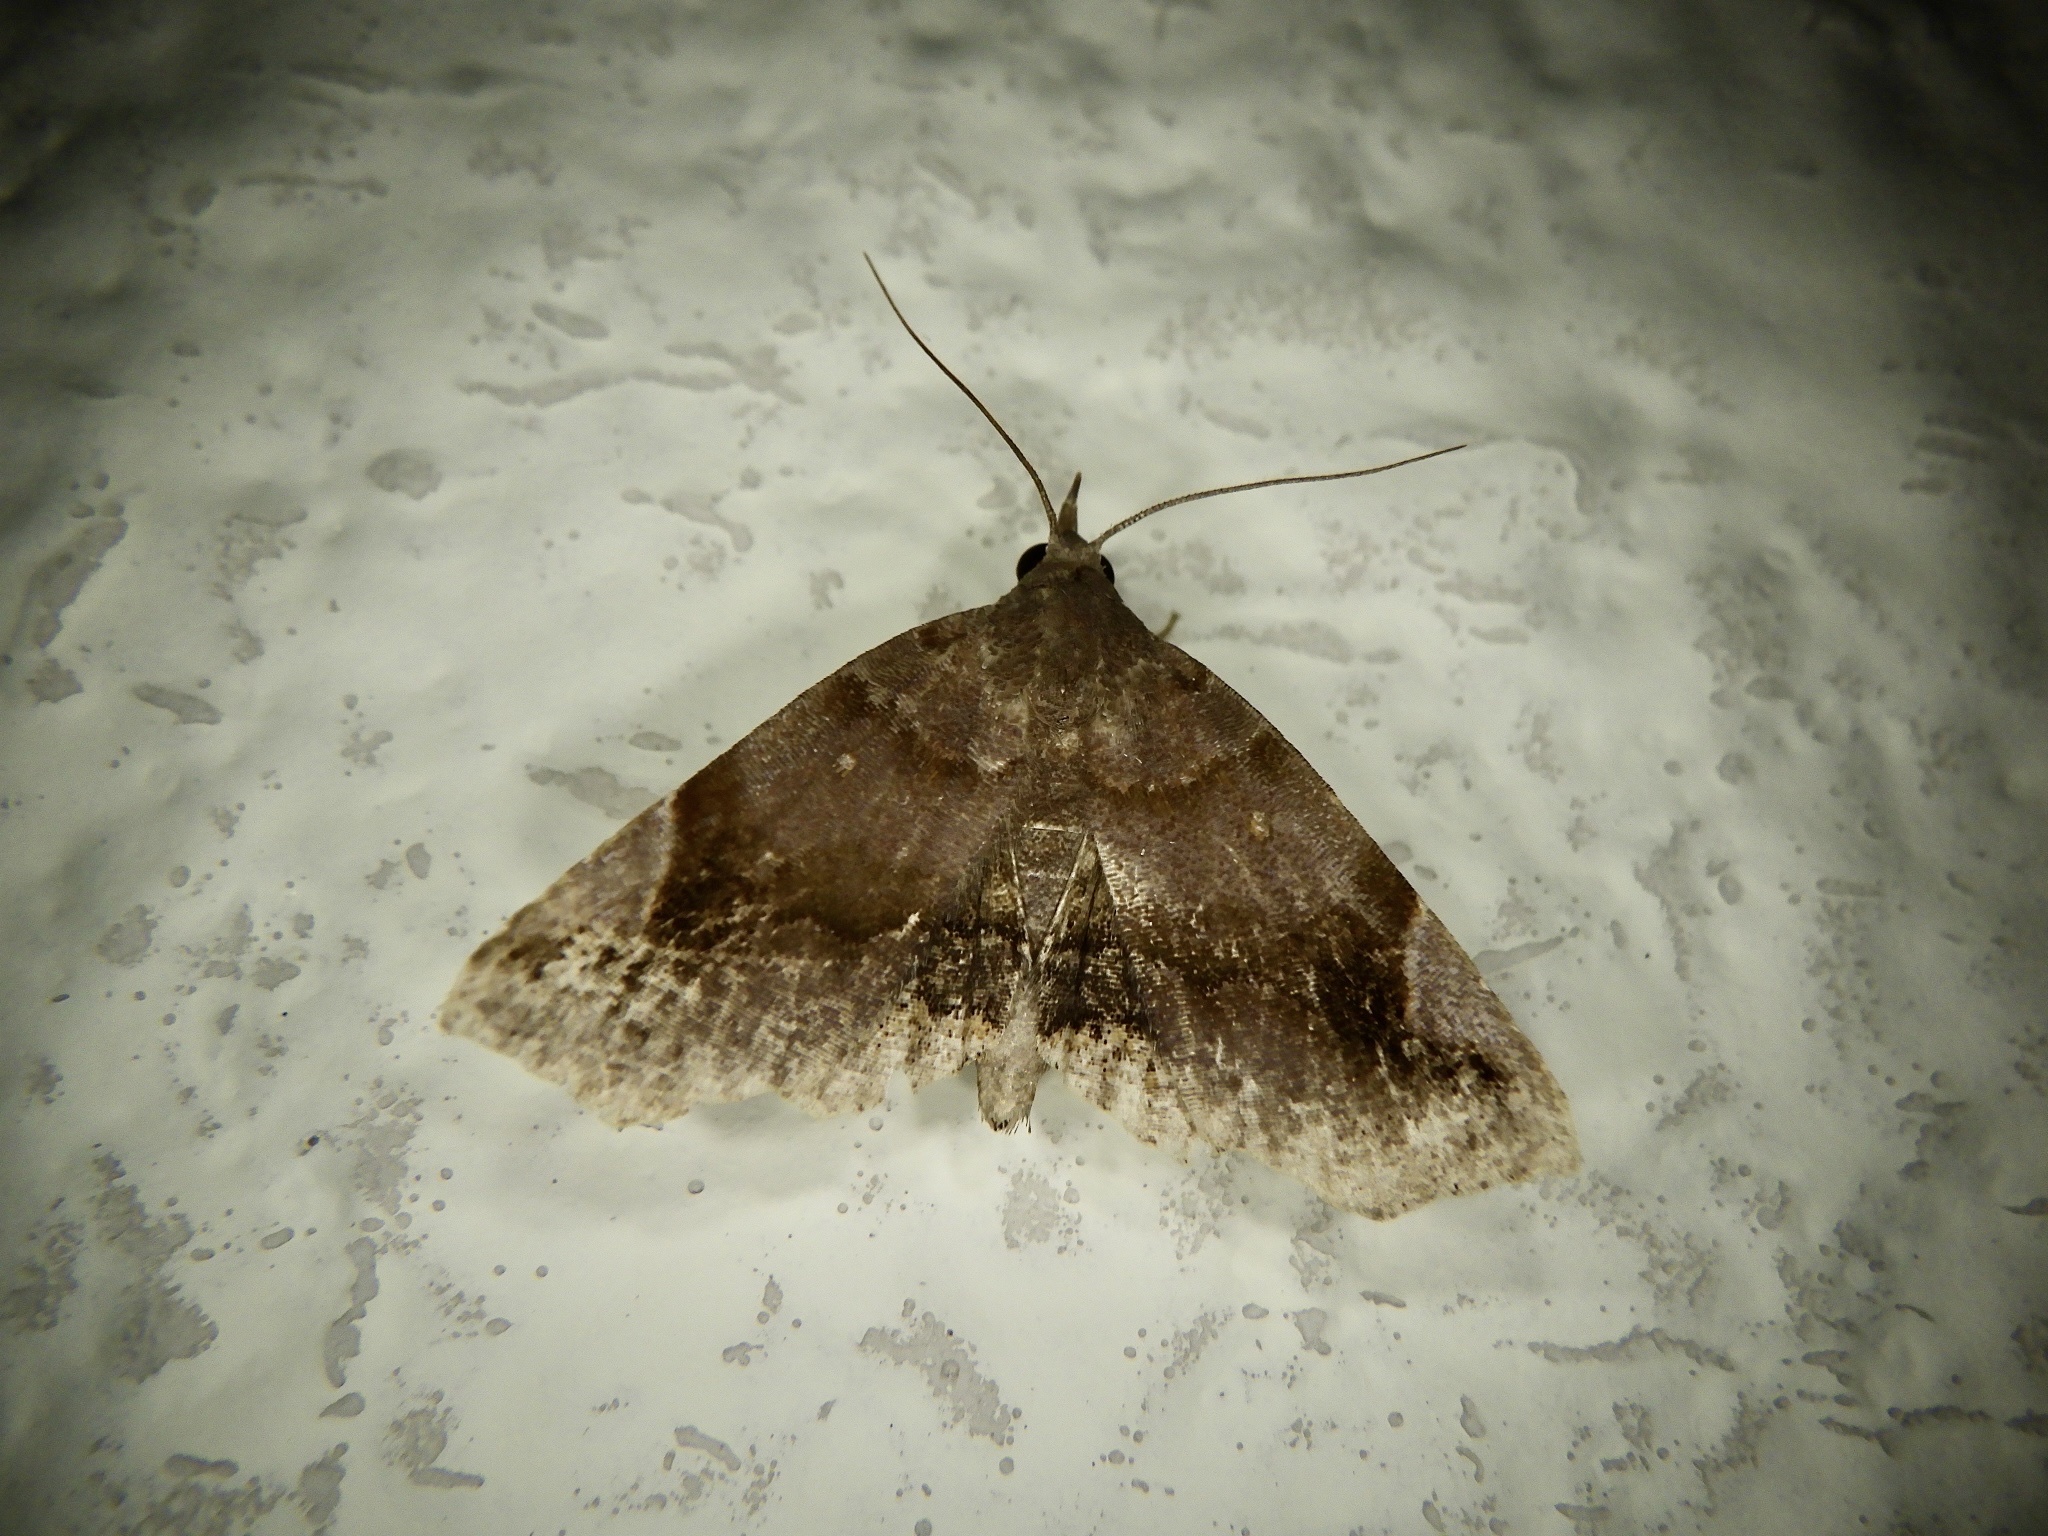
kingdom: Animalia
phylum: Arthropoda
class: Insecta
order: Lepidoptera
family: Erebidae
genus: Pangrapta
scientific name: Pangrapta obscurata
